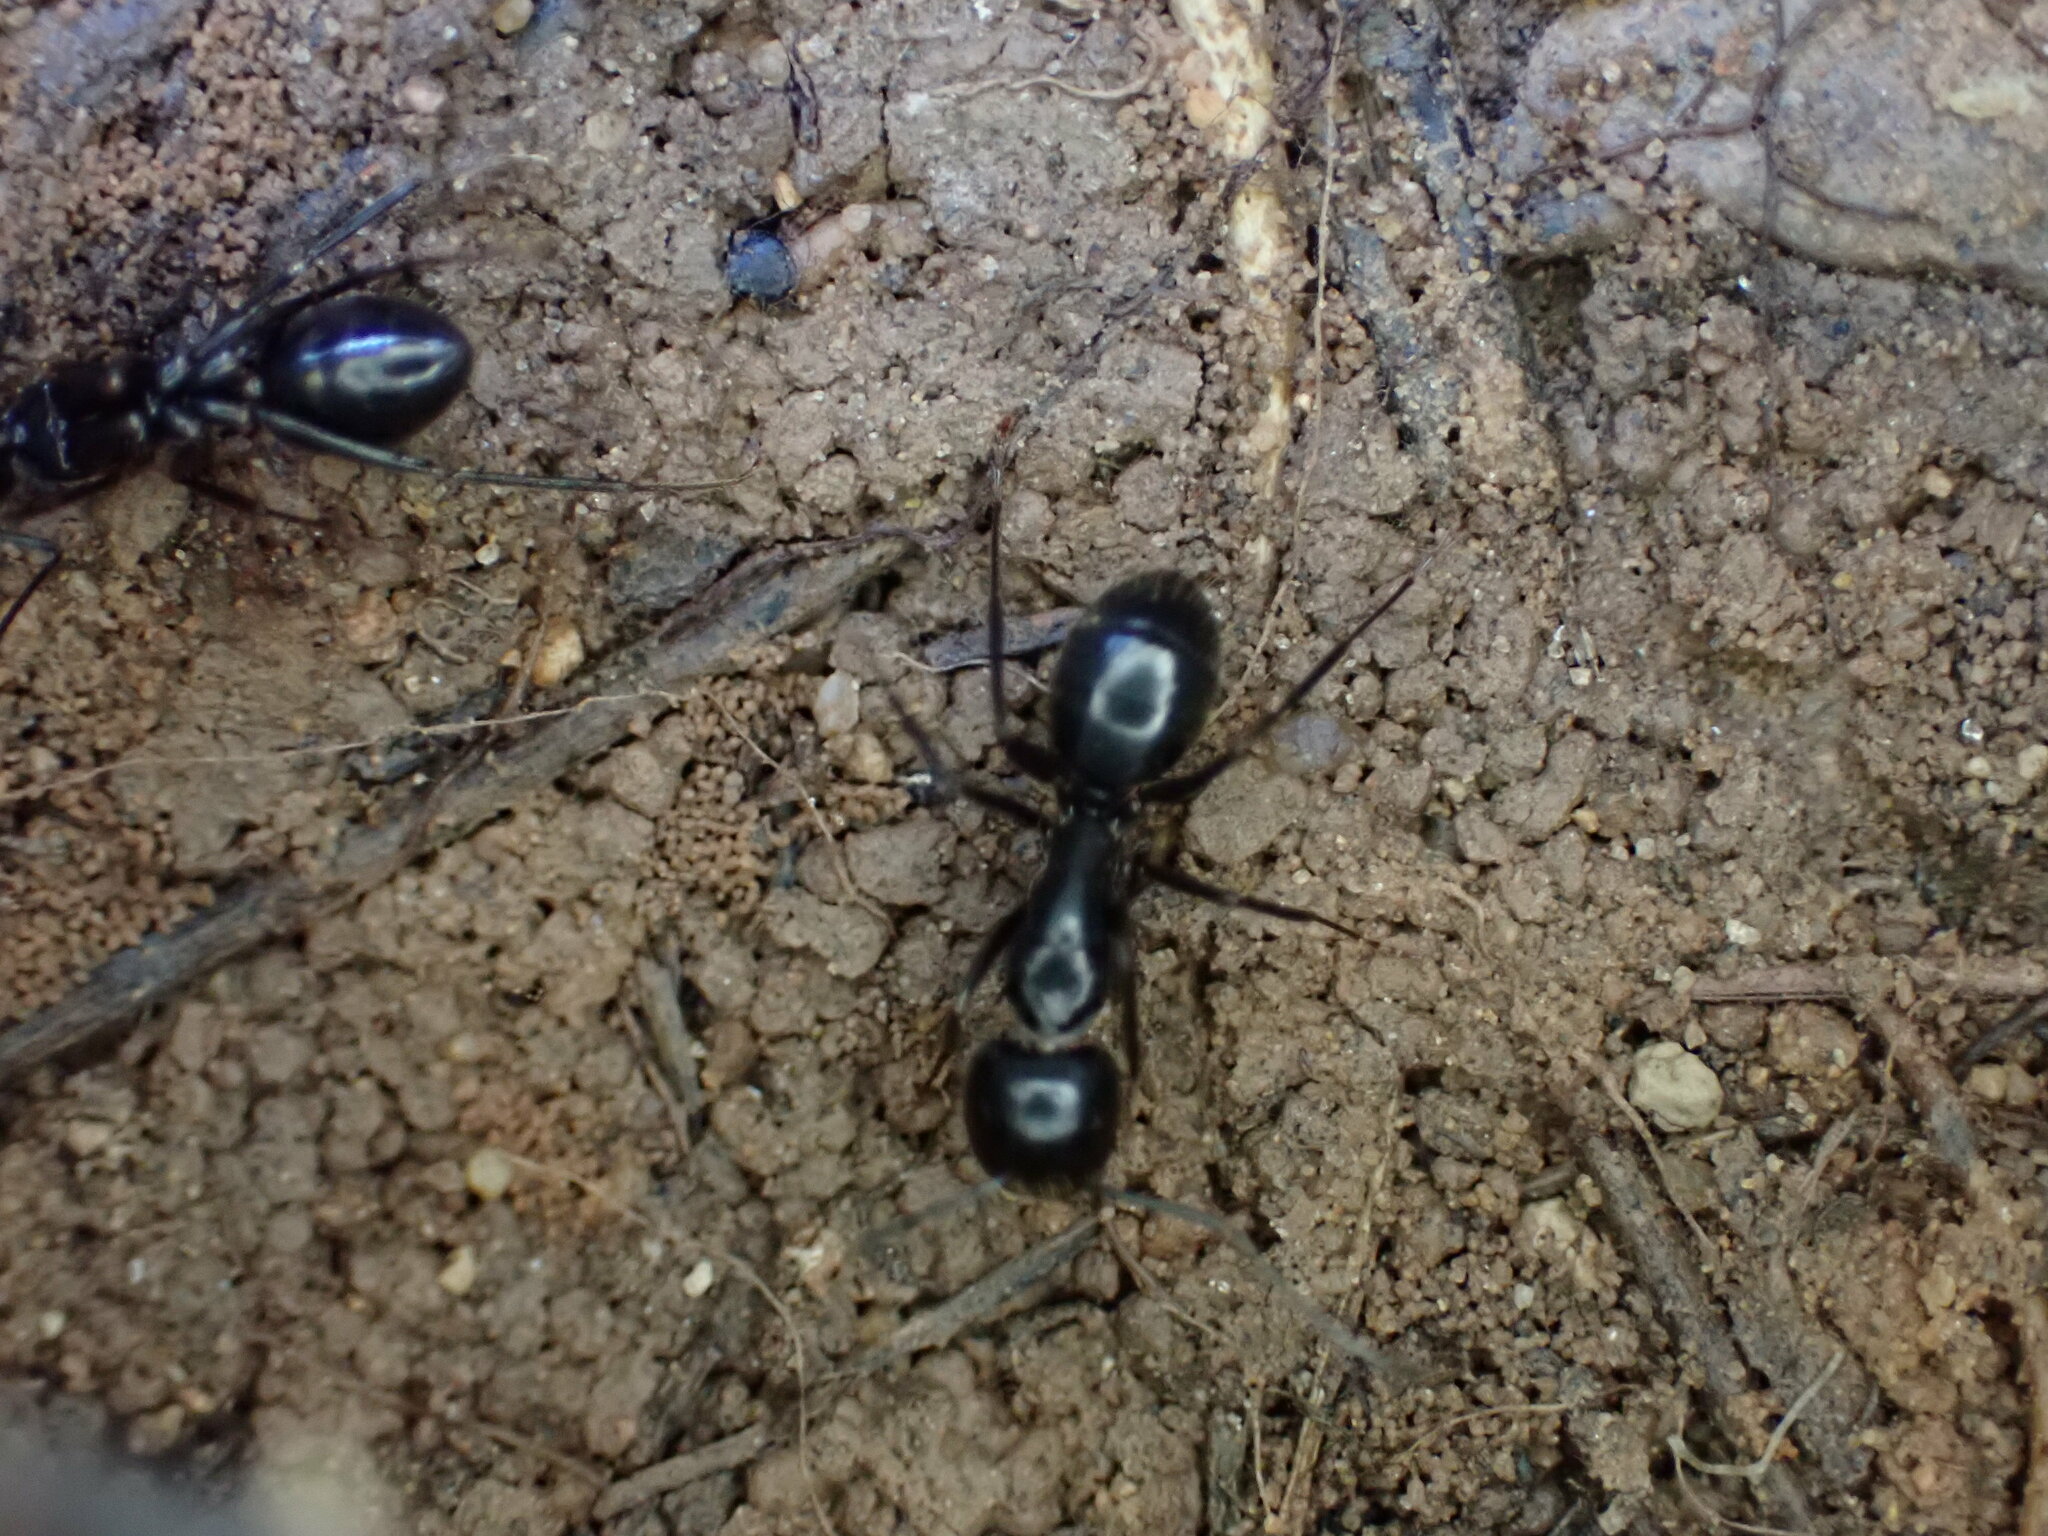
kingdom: Animalia
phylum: Arthropoda
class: Insecta
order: Hymenoptera
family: Formicidae
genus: Camponotus
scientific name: Camponotus aethiops
